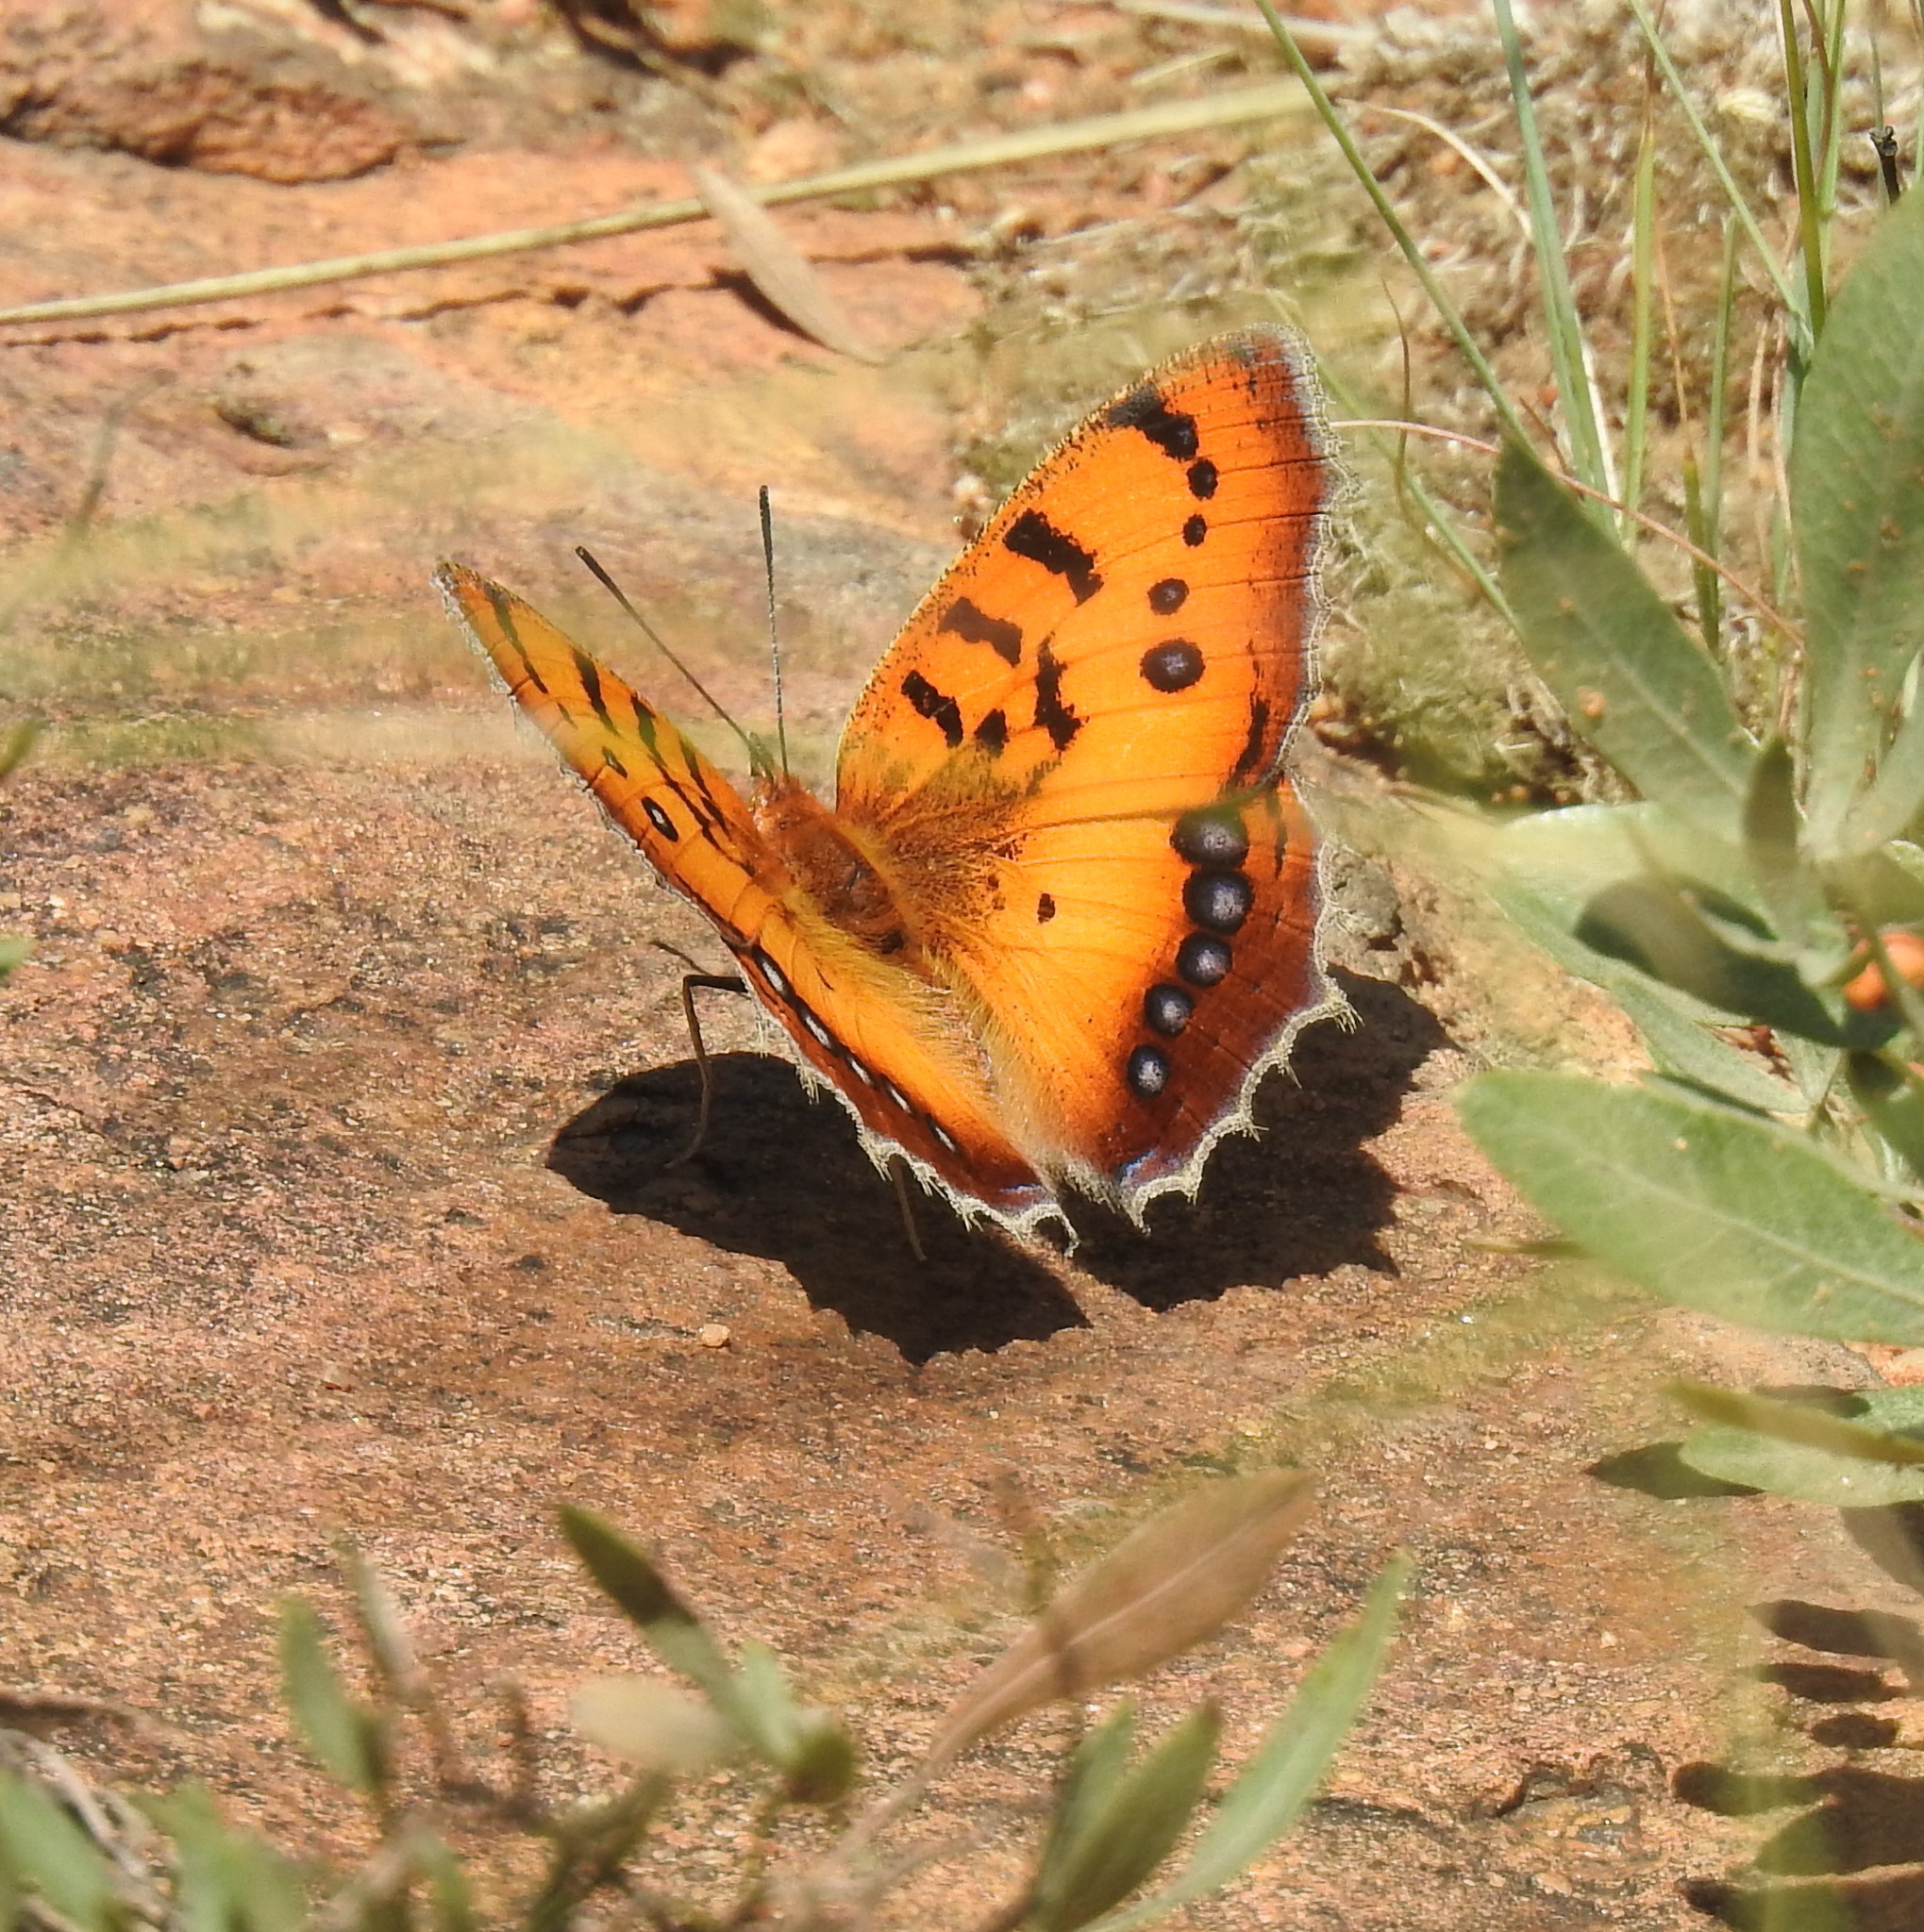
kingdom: Animalia
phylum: Arthropoda
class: Insecta
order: Lepidoptera
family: Nymphalidae
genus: Catacroptera
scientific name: Catacroptera cloanthe
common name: Pirate
